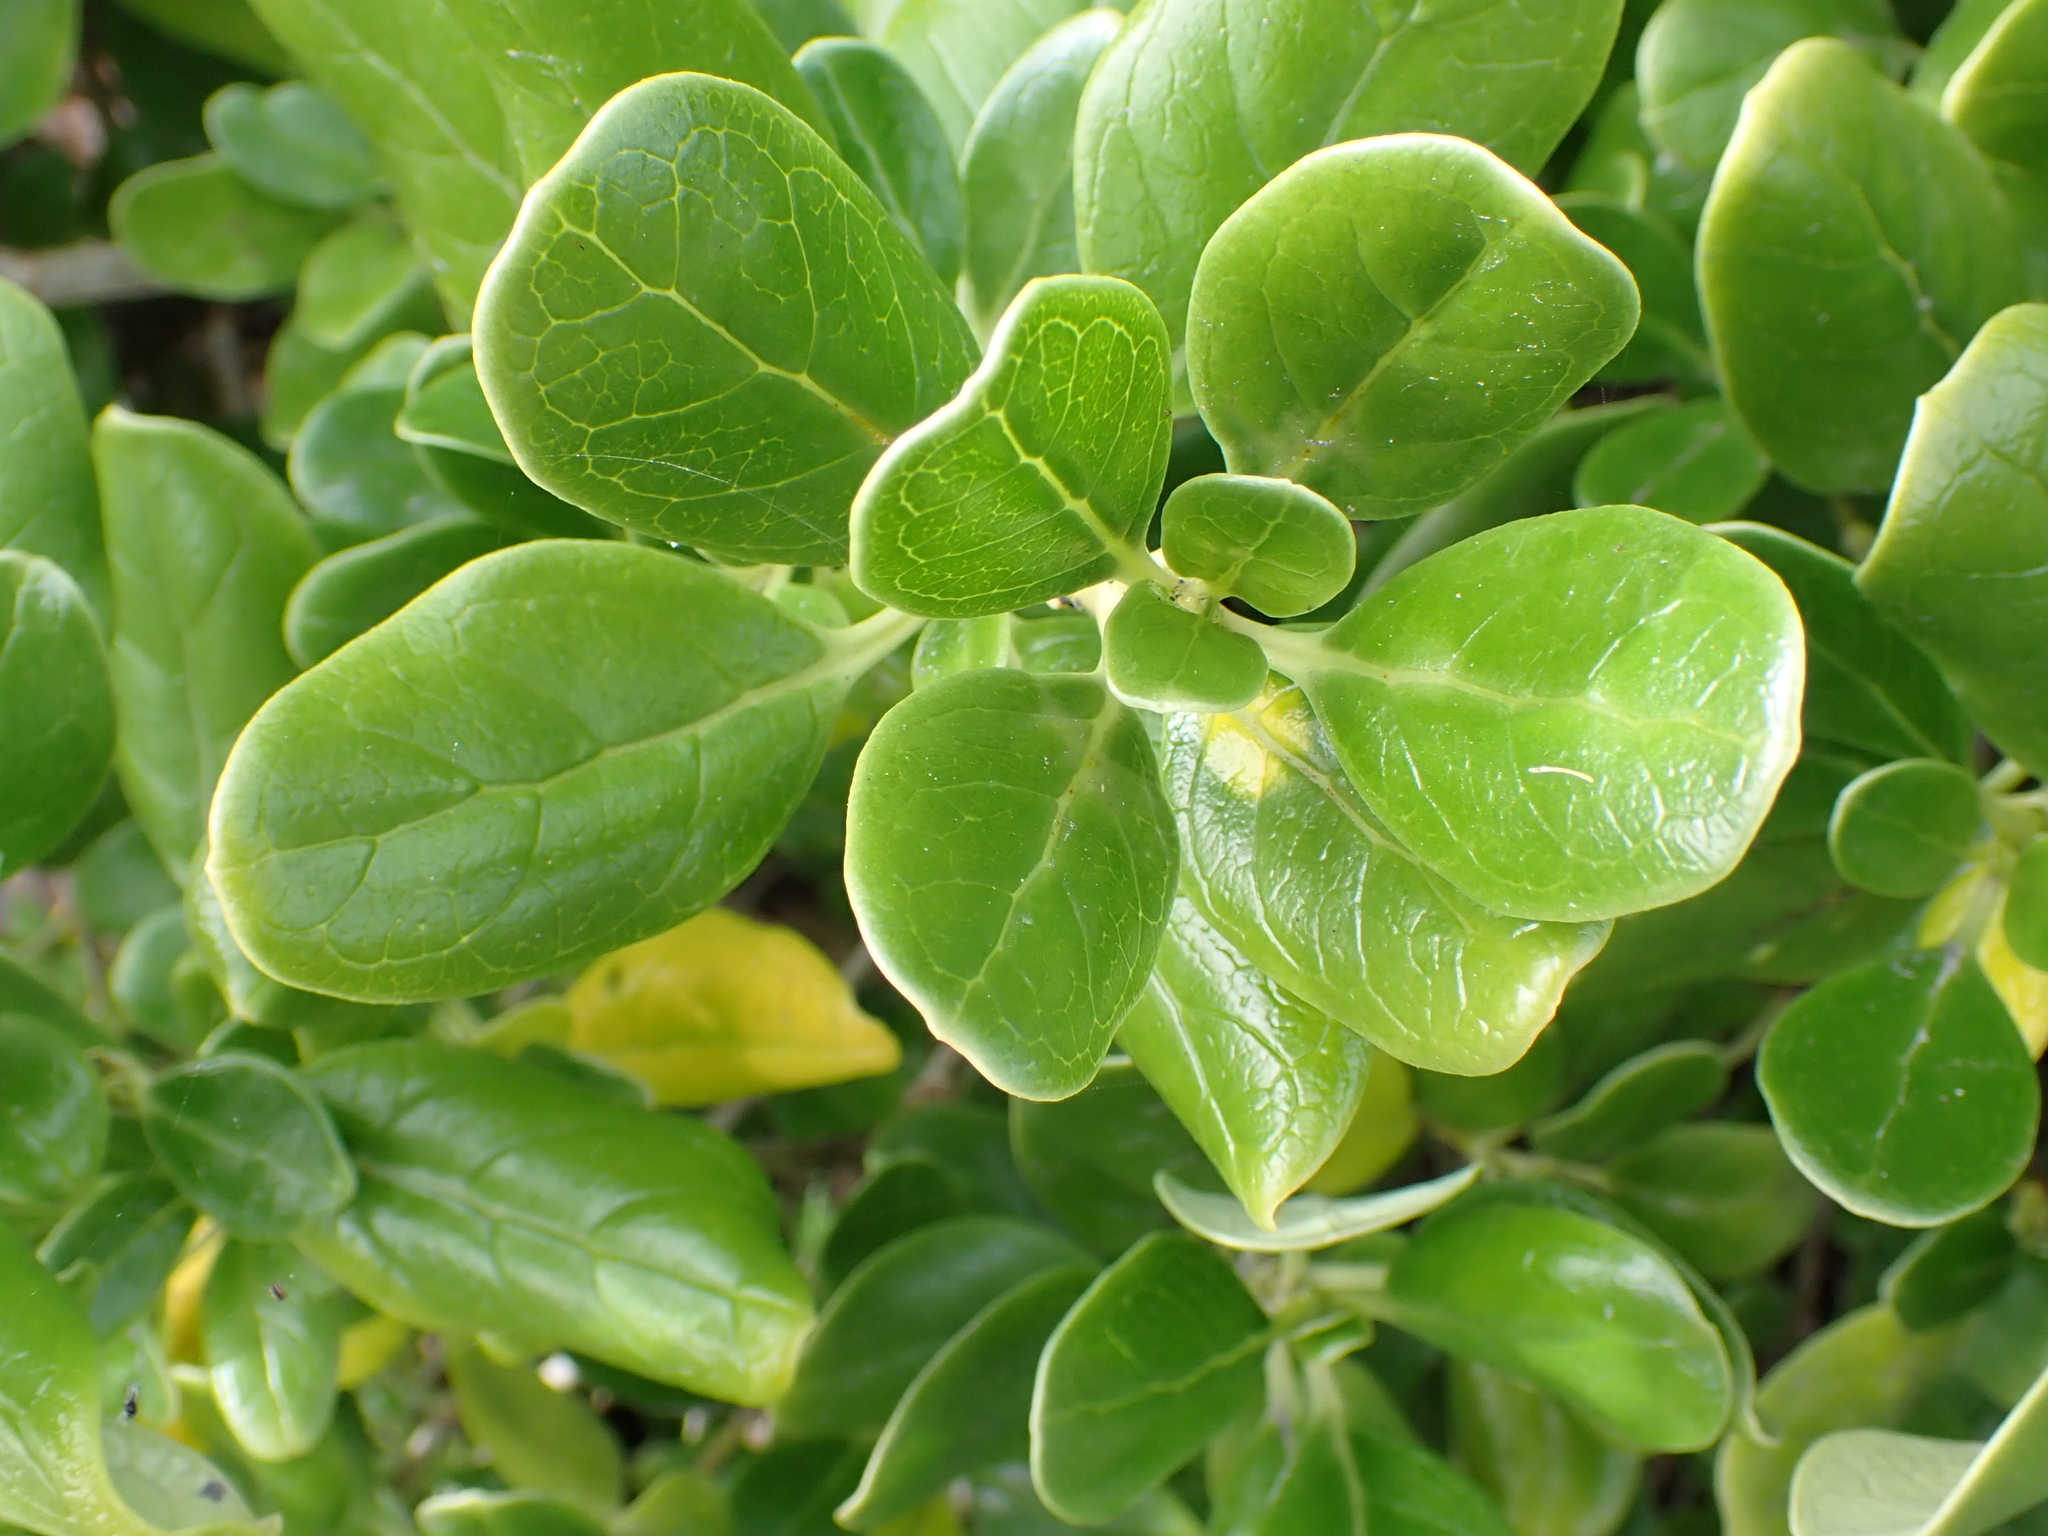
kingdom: Plantae
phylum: Tracheophyta
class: Magnoliopsida
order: Gentianales
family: Rubiaceae
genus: Coprosma
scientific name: Coprosma repens
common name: Tree bedstraw
